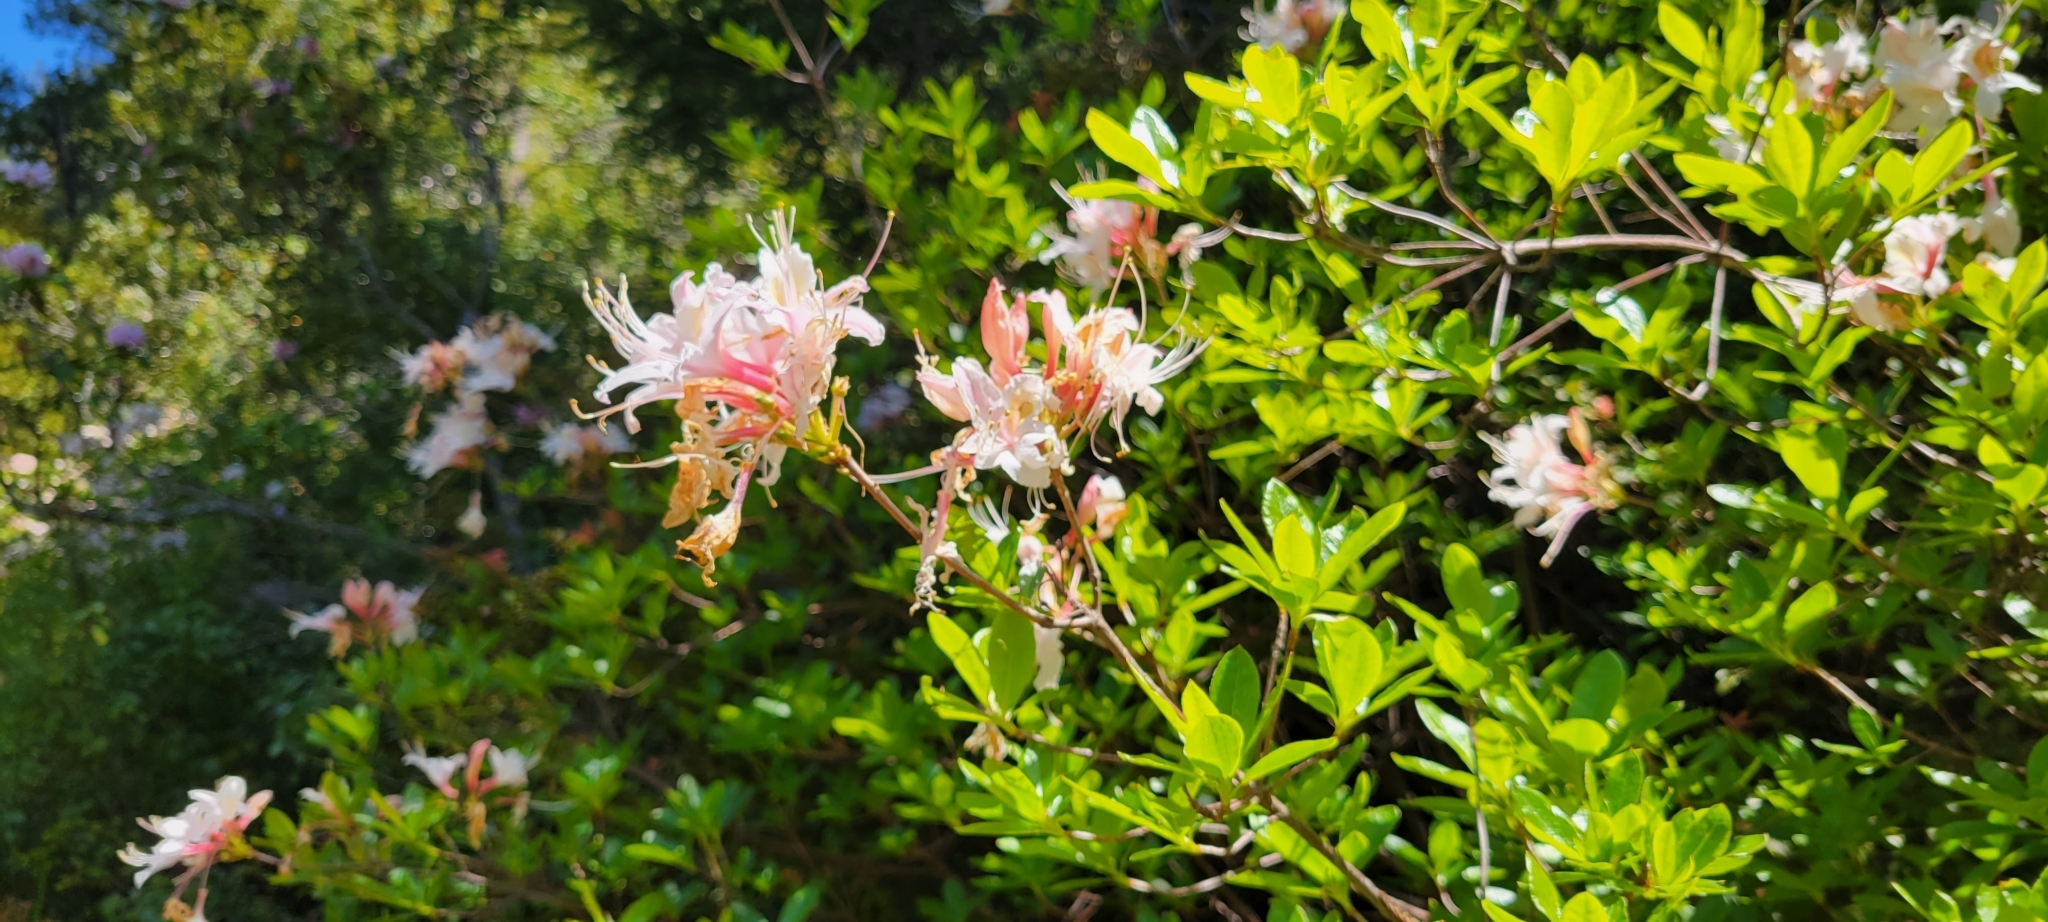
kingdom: Plantae
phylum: Tracheophyta
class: Magnoliopsida
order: Ericales
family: Ericaceae
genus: Rhododendron
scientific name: Rhododendron occidentale
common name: Western azalea
